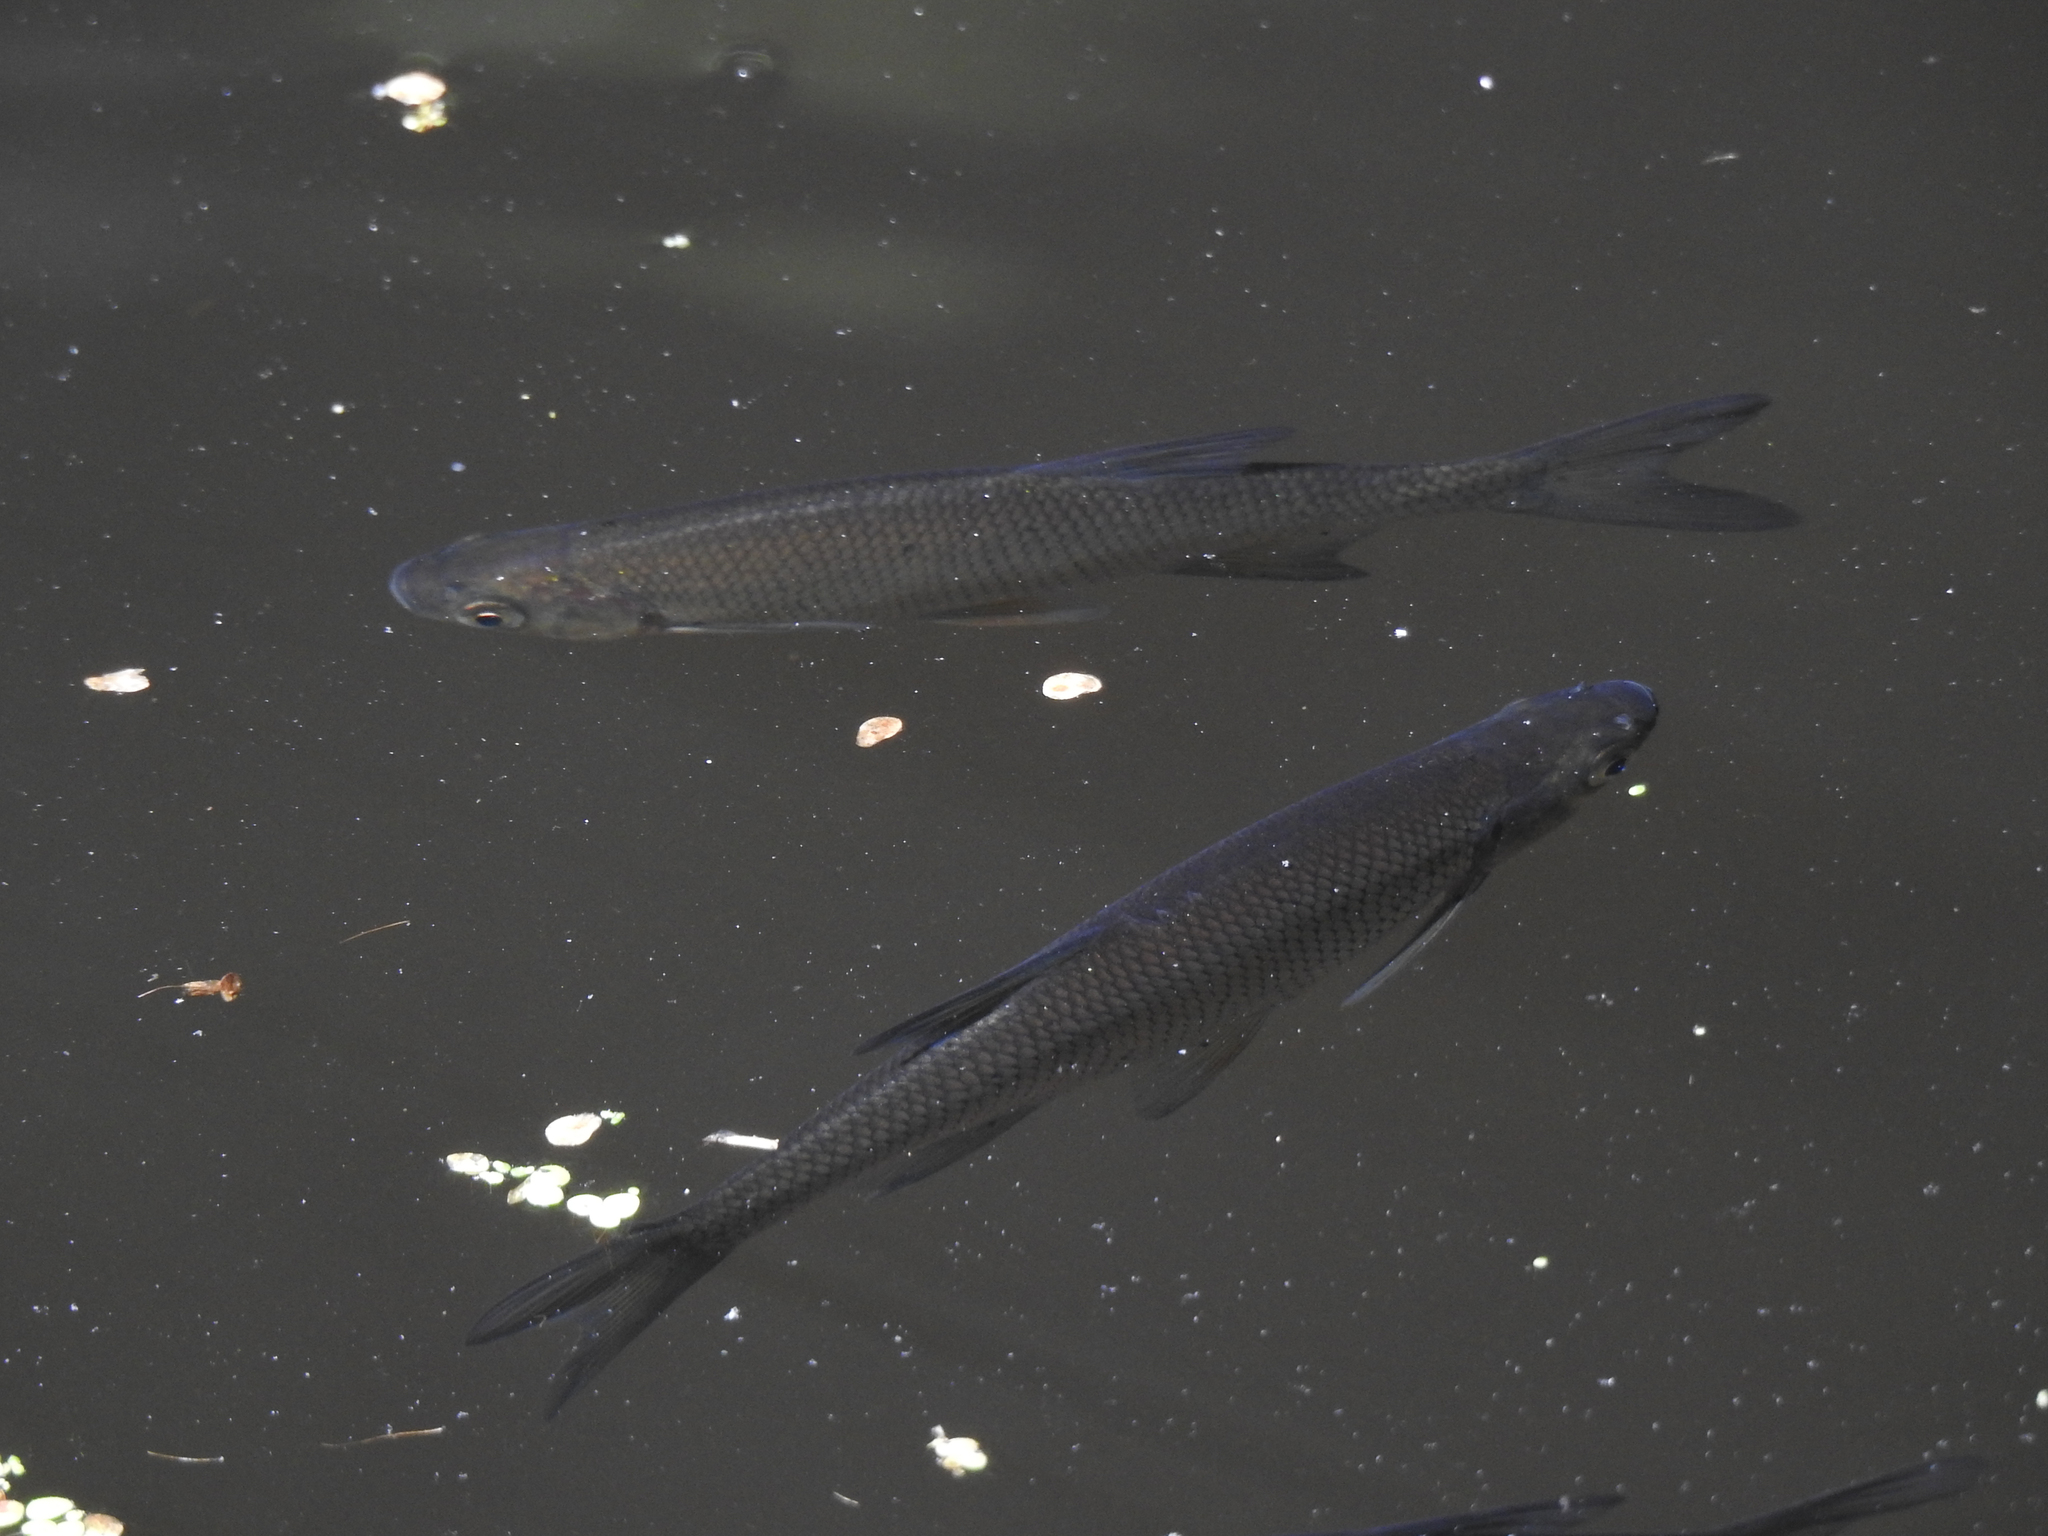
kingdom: Animalia
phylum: Chordata
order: Cypriniformes
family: Cyprinidae
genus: Notemigonus
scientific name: Notemigonus crysoleucas
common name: Golden shiner
